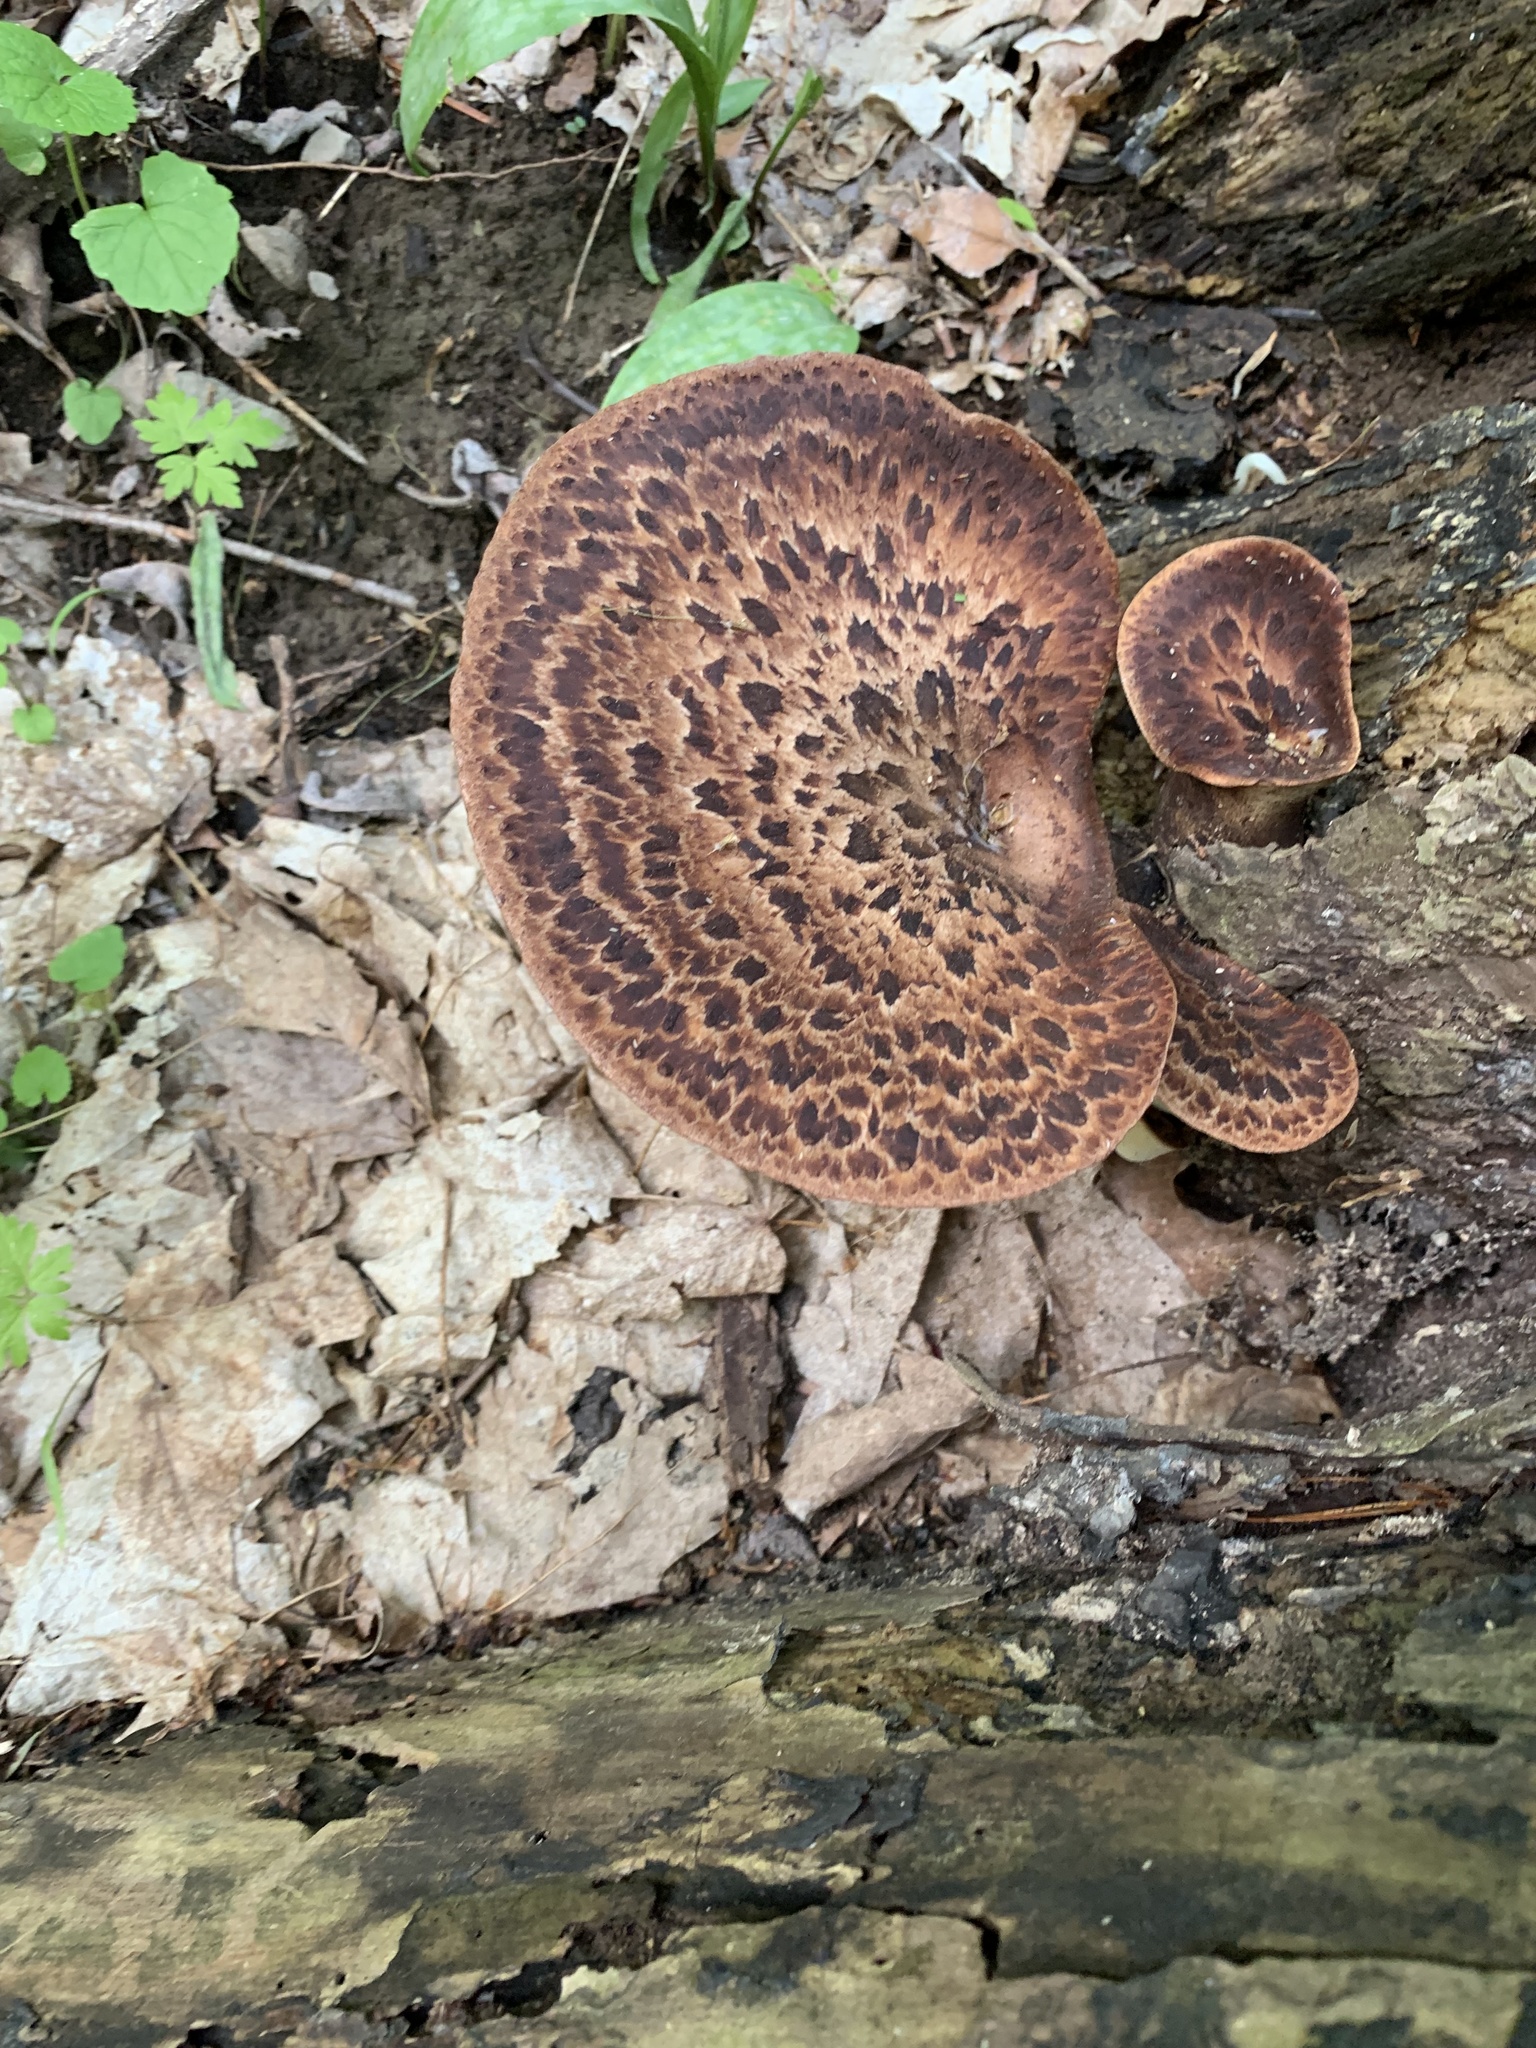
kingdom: Fungi
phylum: Basidiomycota
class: Agaricomycetes
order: Polyporales
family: Polyporaceae
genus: Cerioporus
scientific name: Cerioporus squamosus
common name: Dryad's saddle
